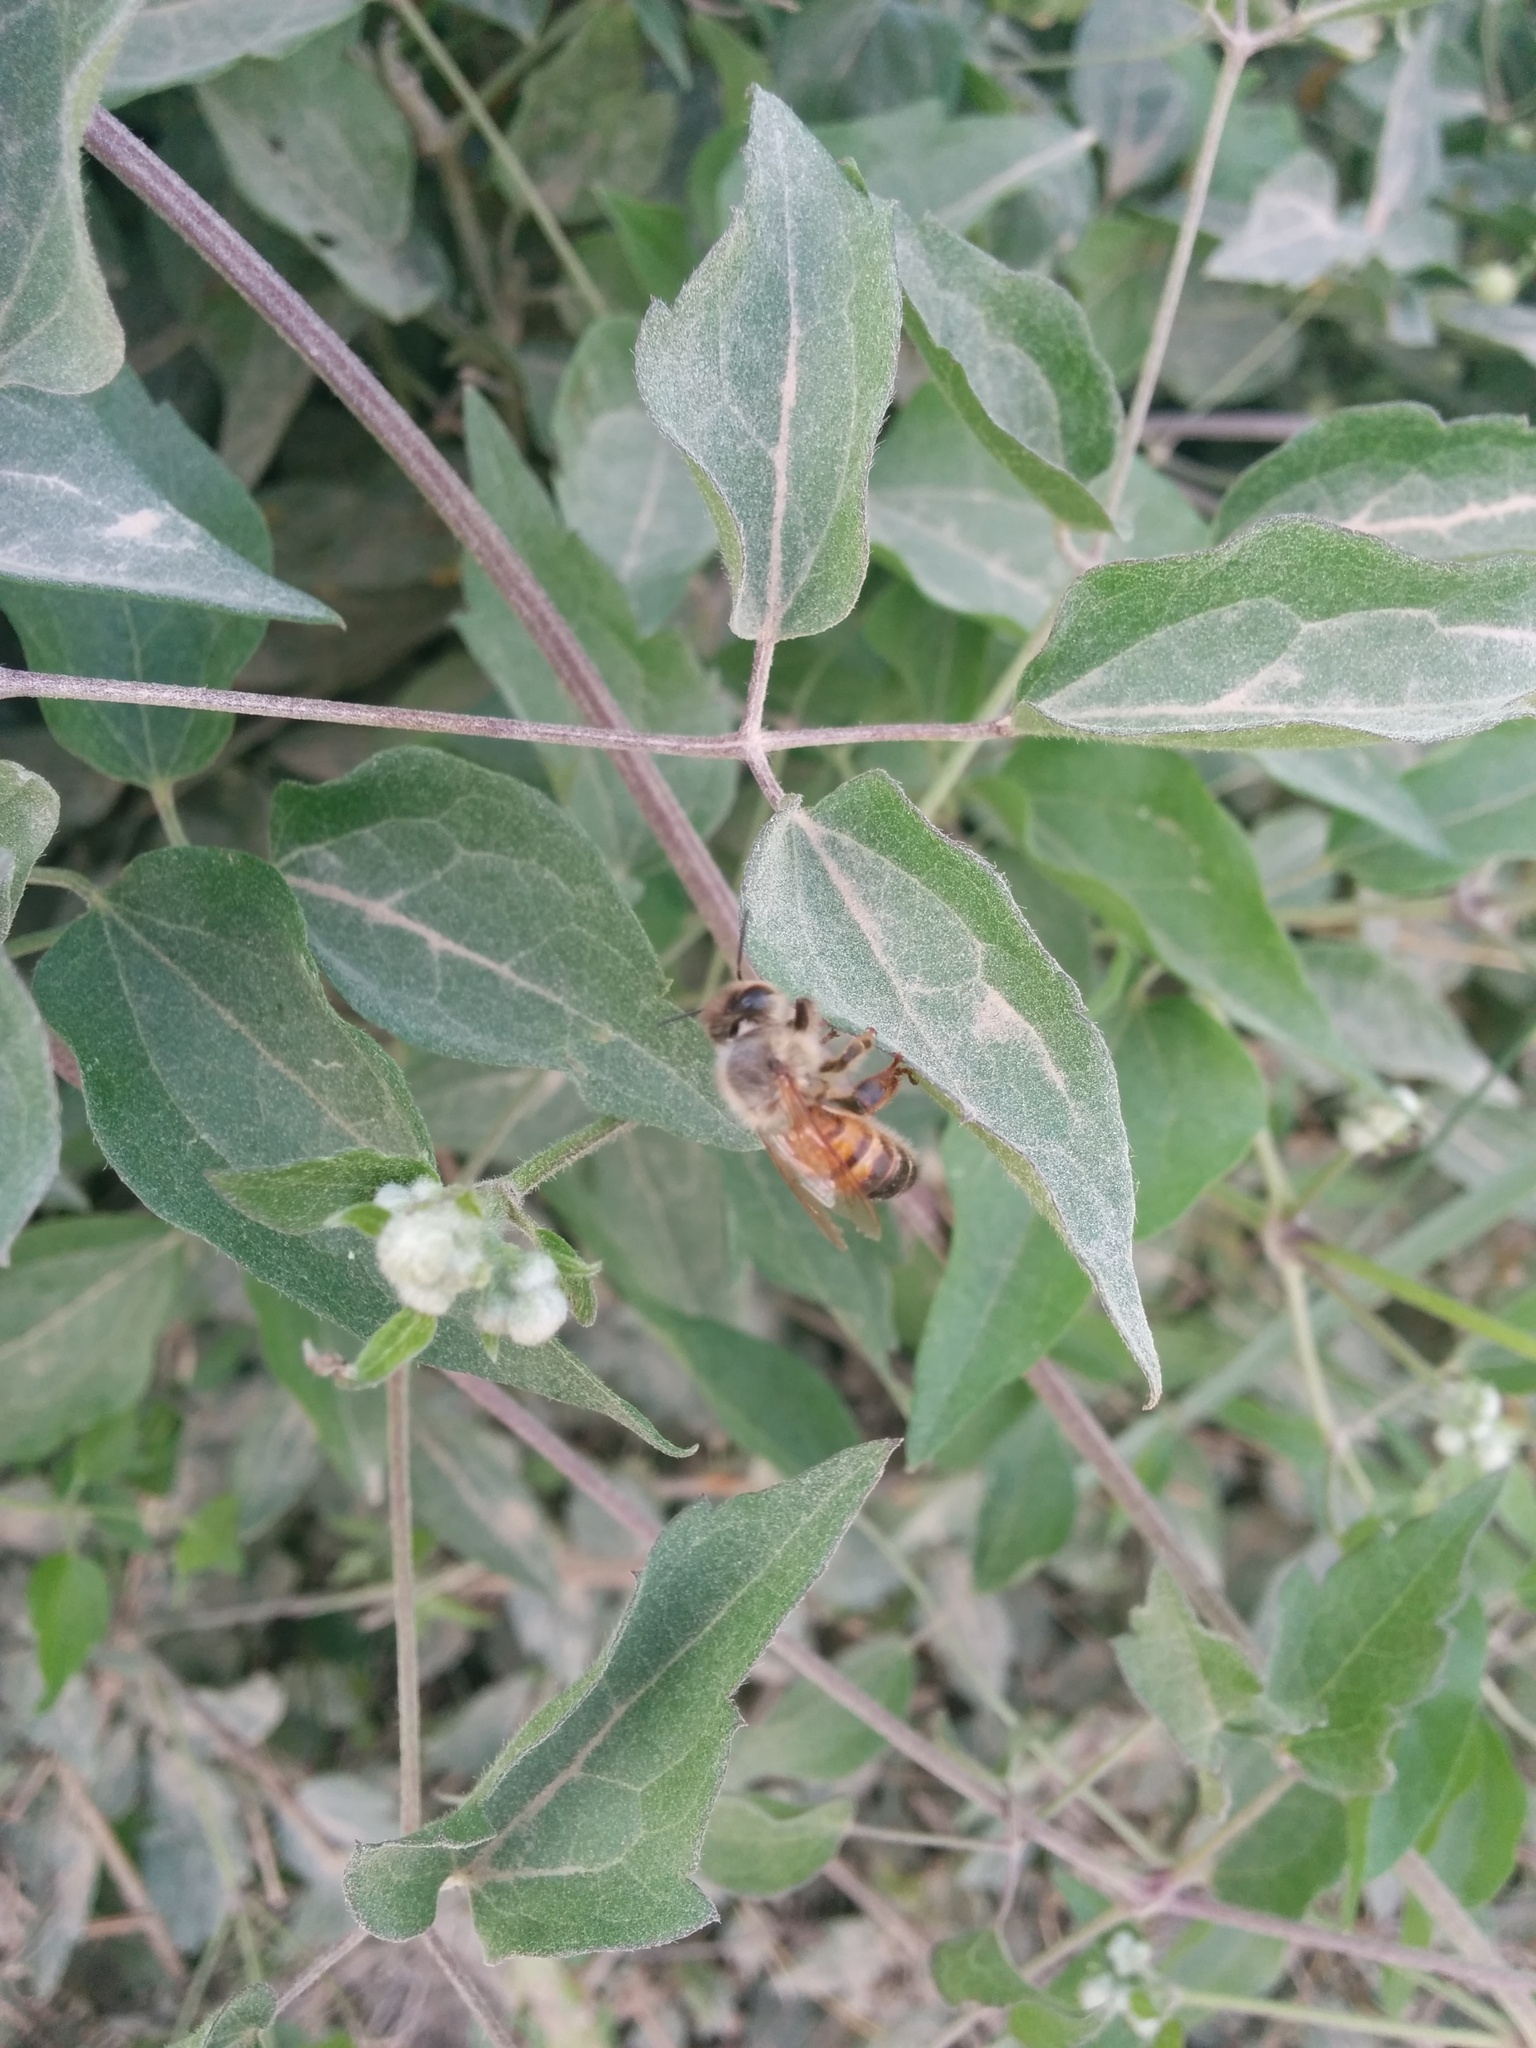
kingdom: Animalia
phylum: Arthropoda
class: Insecta
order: Hymenoptera
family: Apidae
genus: Apis
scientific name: Apis mellifera
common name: Honey bee
